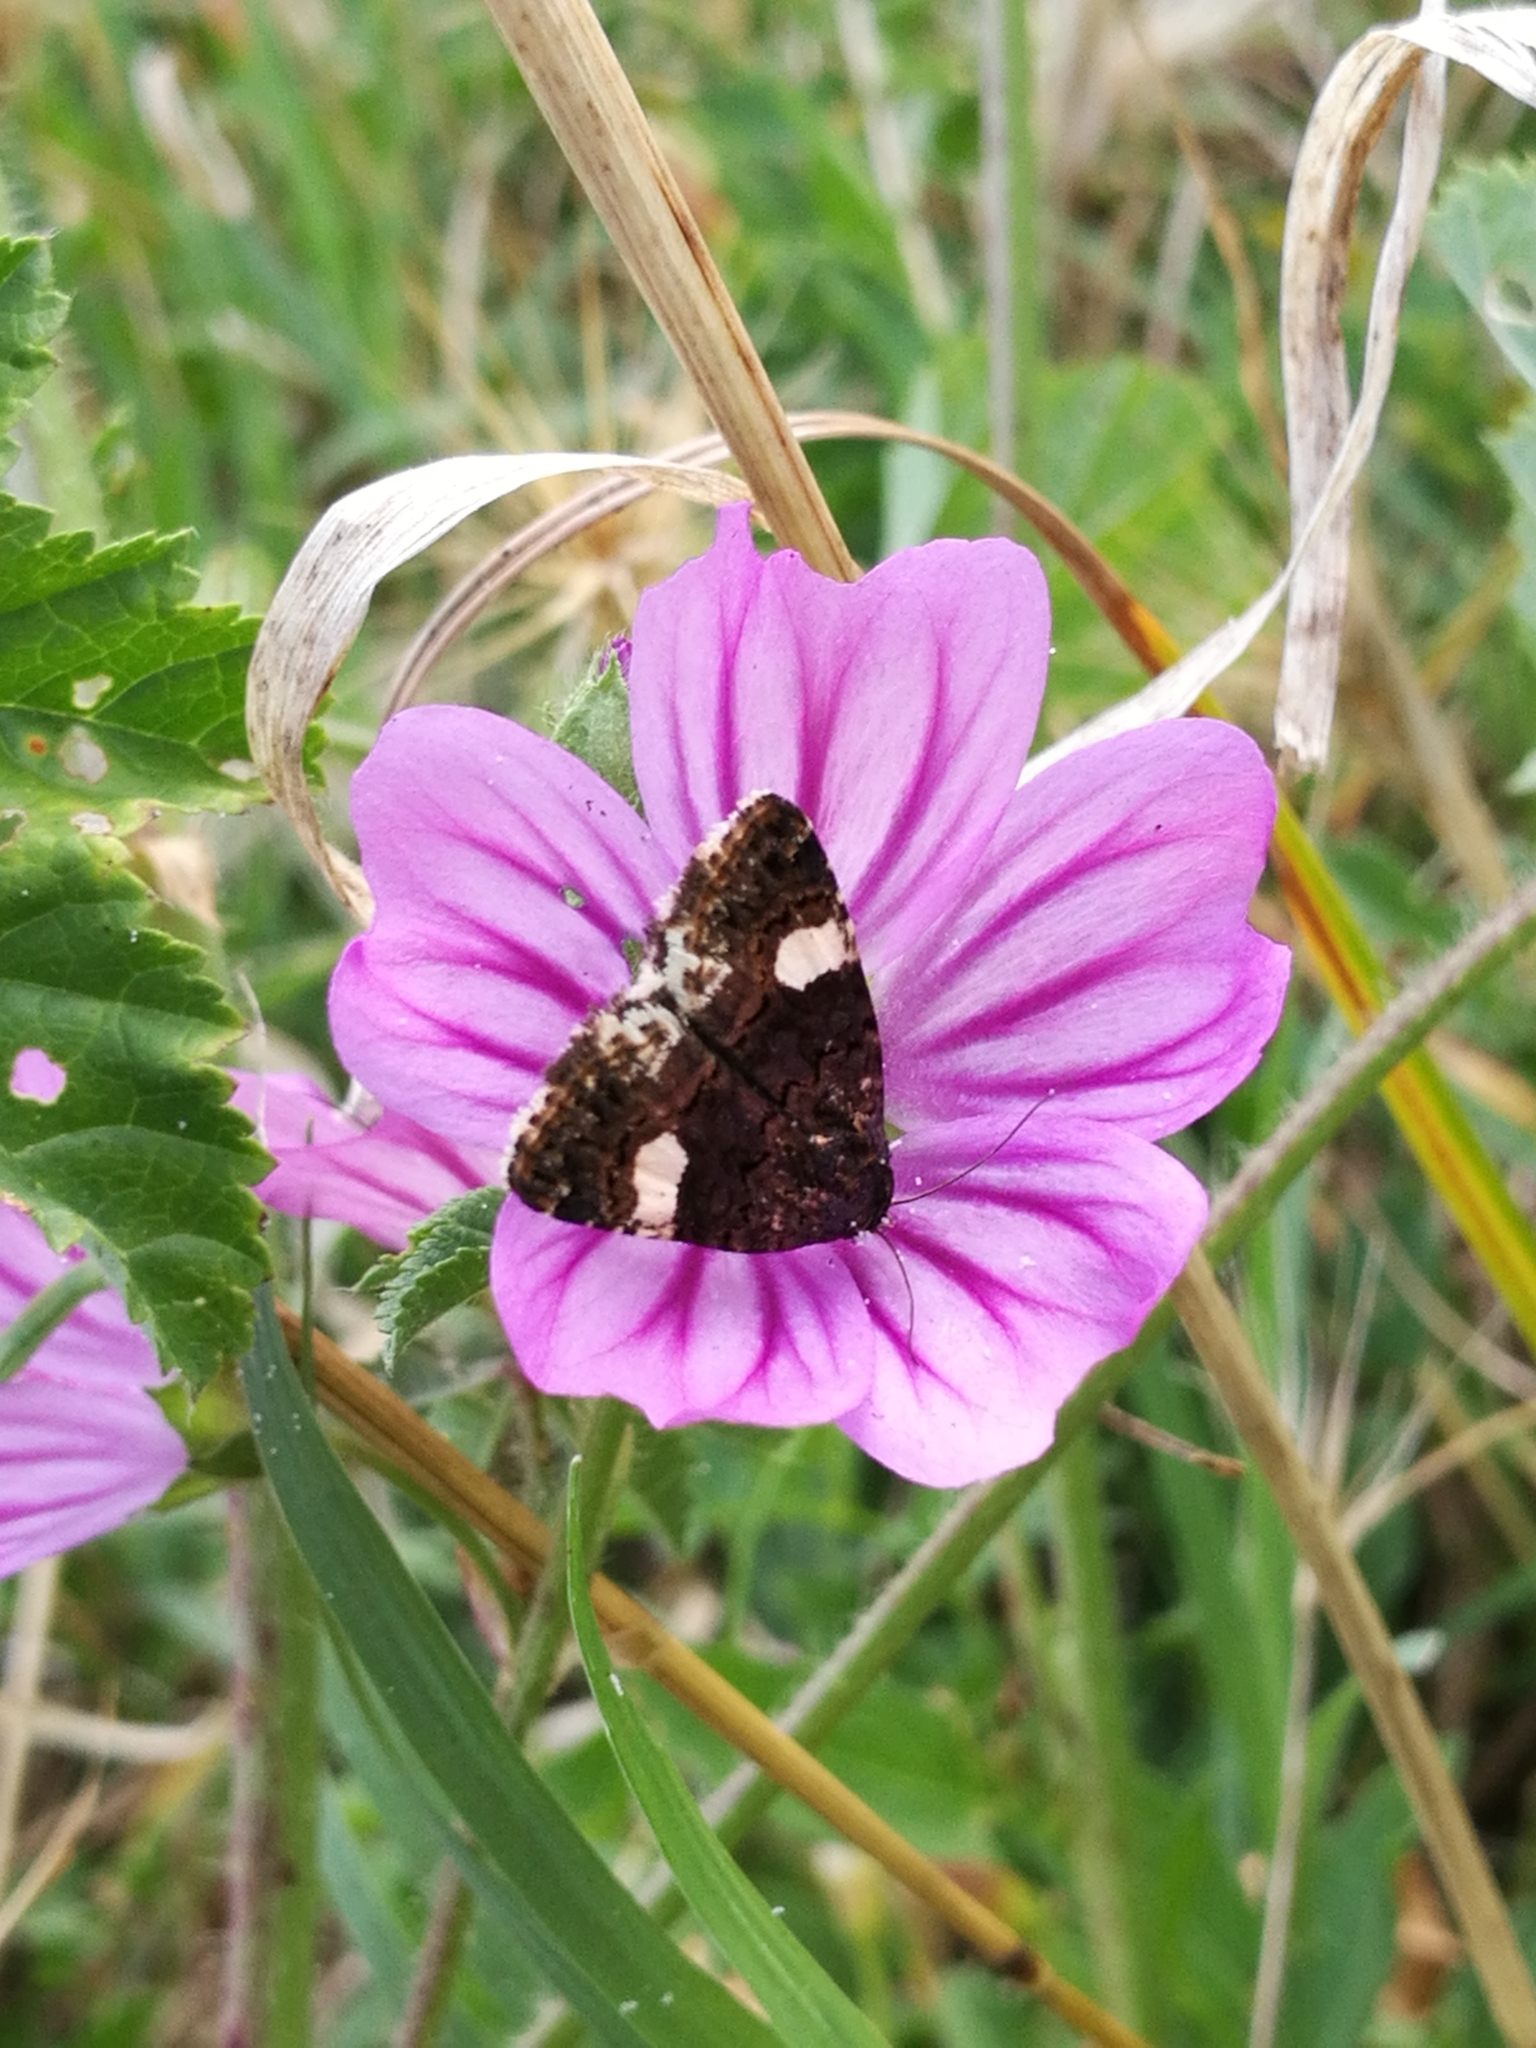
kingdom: Animalia
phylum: Arthropoda
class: Insecta
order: Lepidoptera
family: Erebidae
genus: Tyta
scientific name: Tyta luctuosa
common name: Four-spotted
